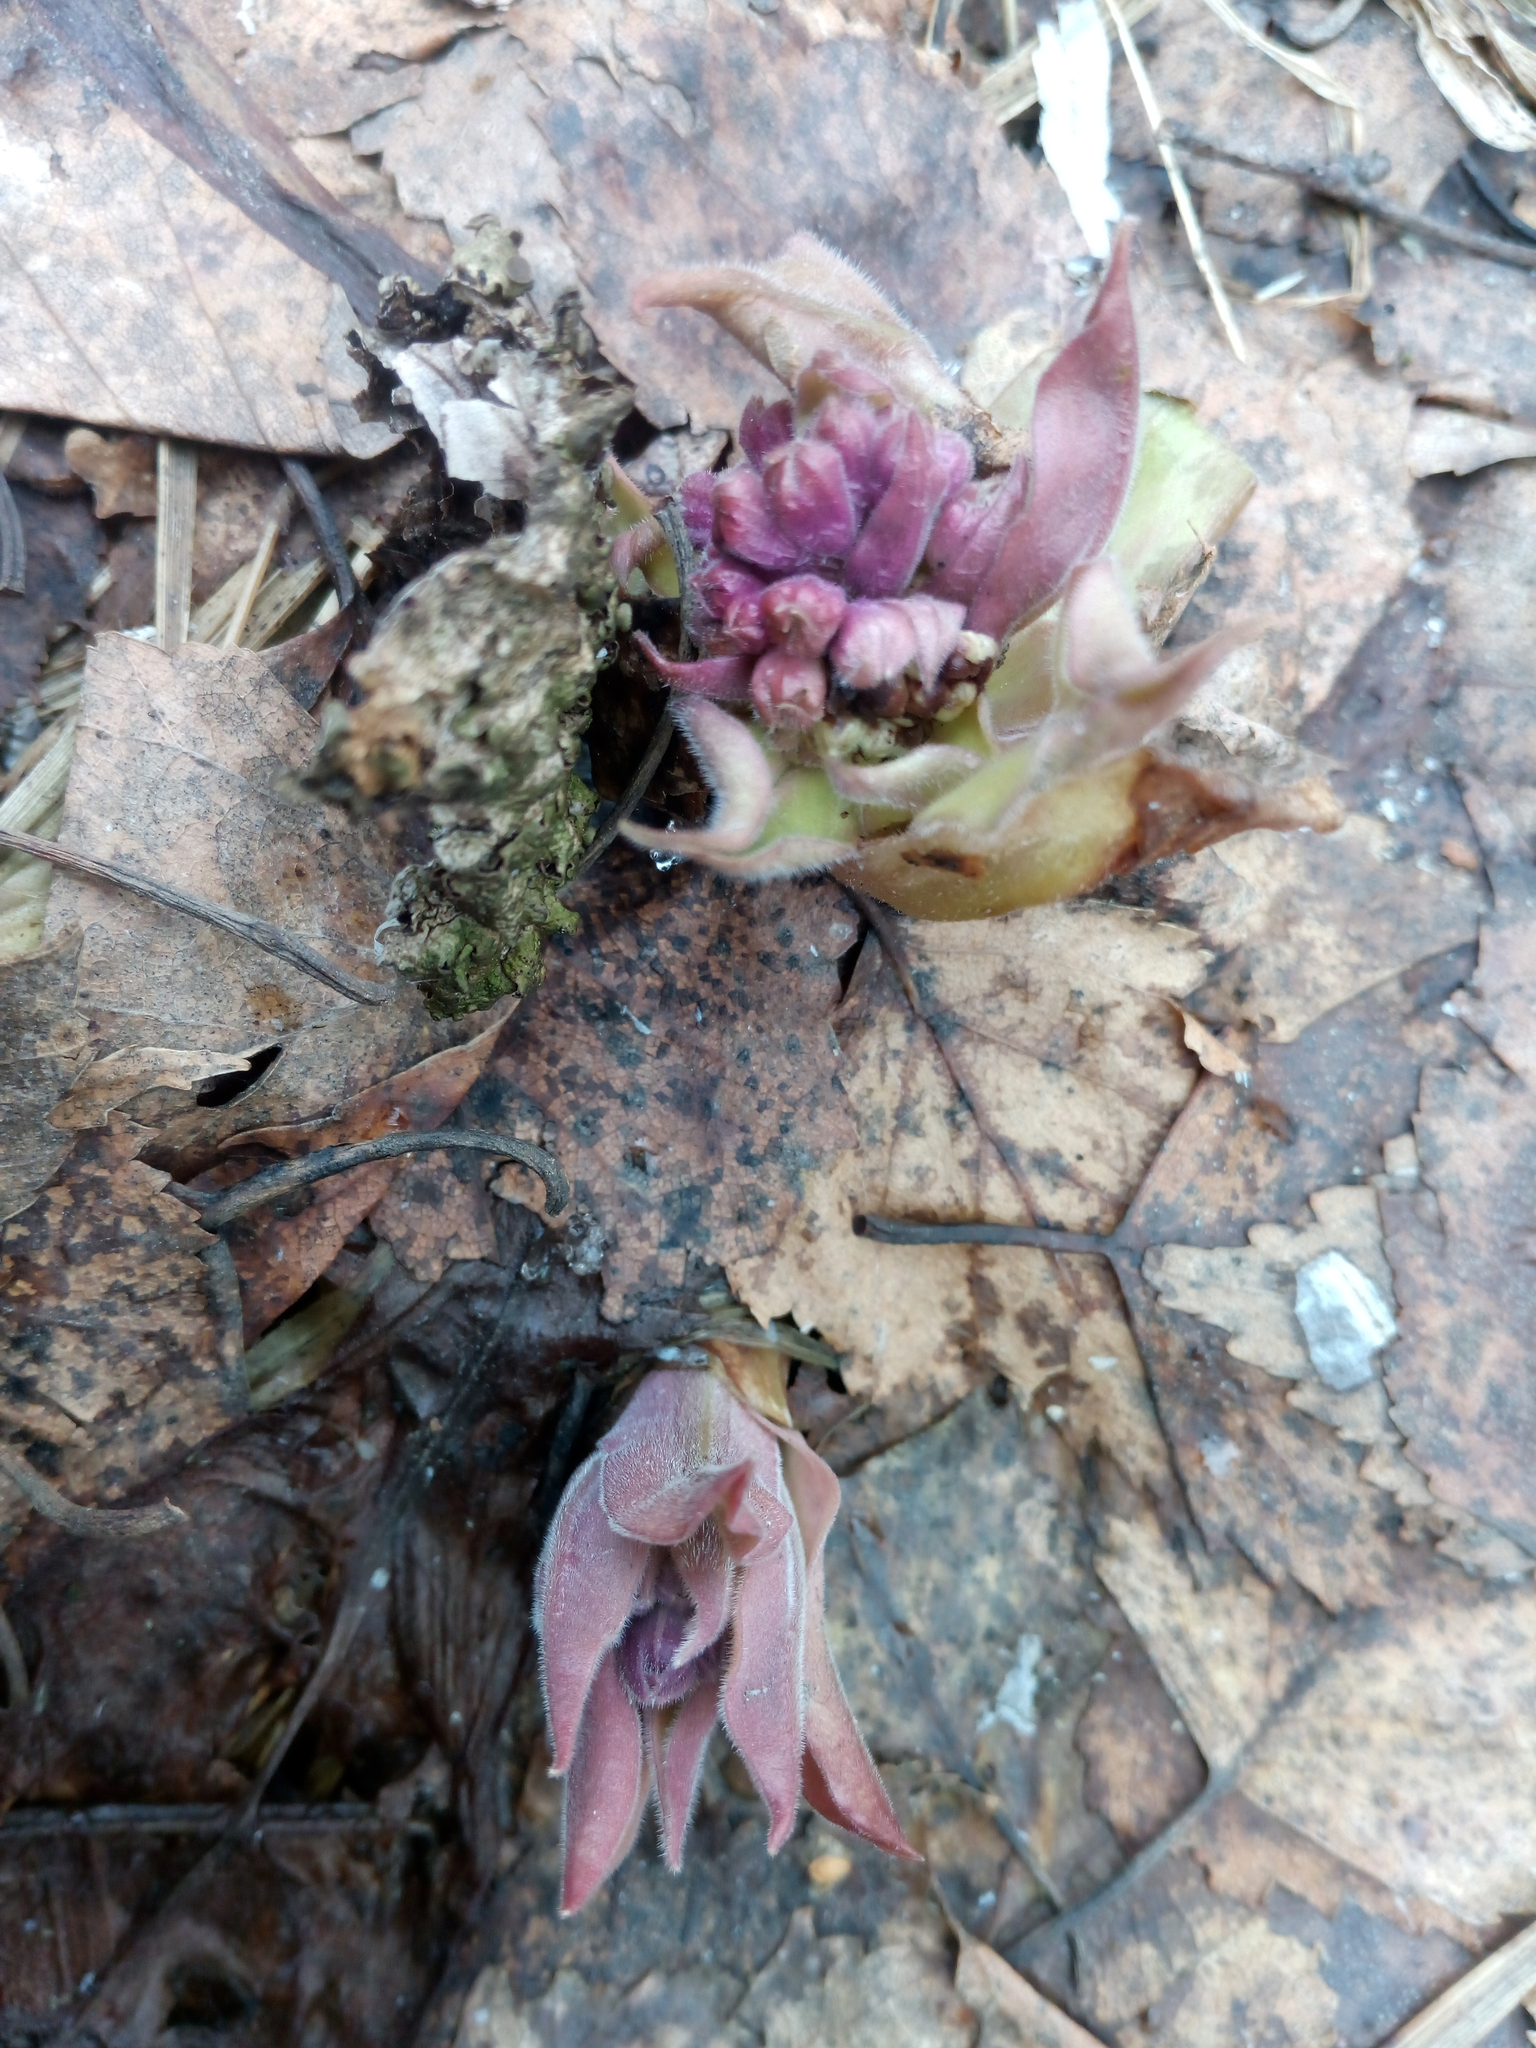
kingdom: Plantae
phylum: Tracheophyta
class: Magnoliopsida
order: Boraginales
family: Boraginaceae
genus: Pulmonaria
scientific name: Pulmonaria mollis
